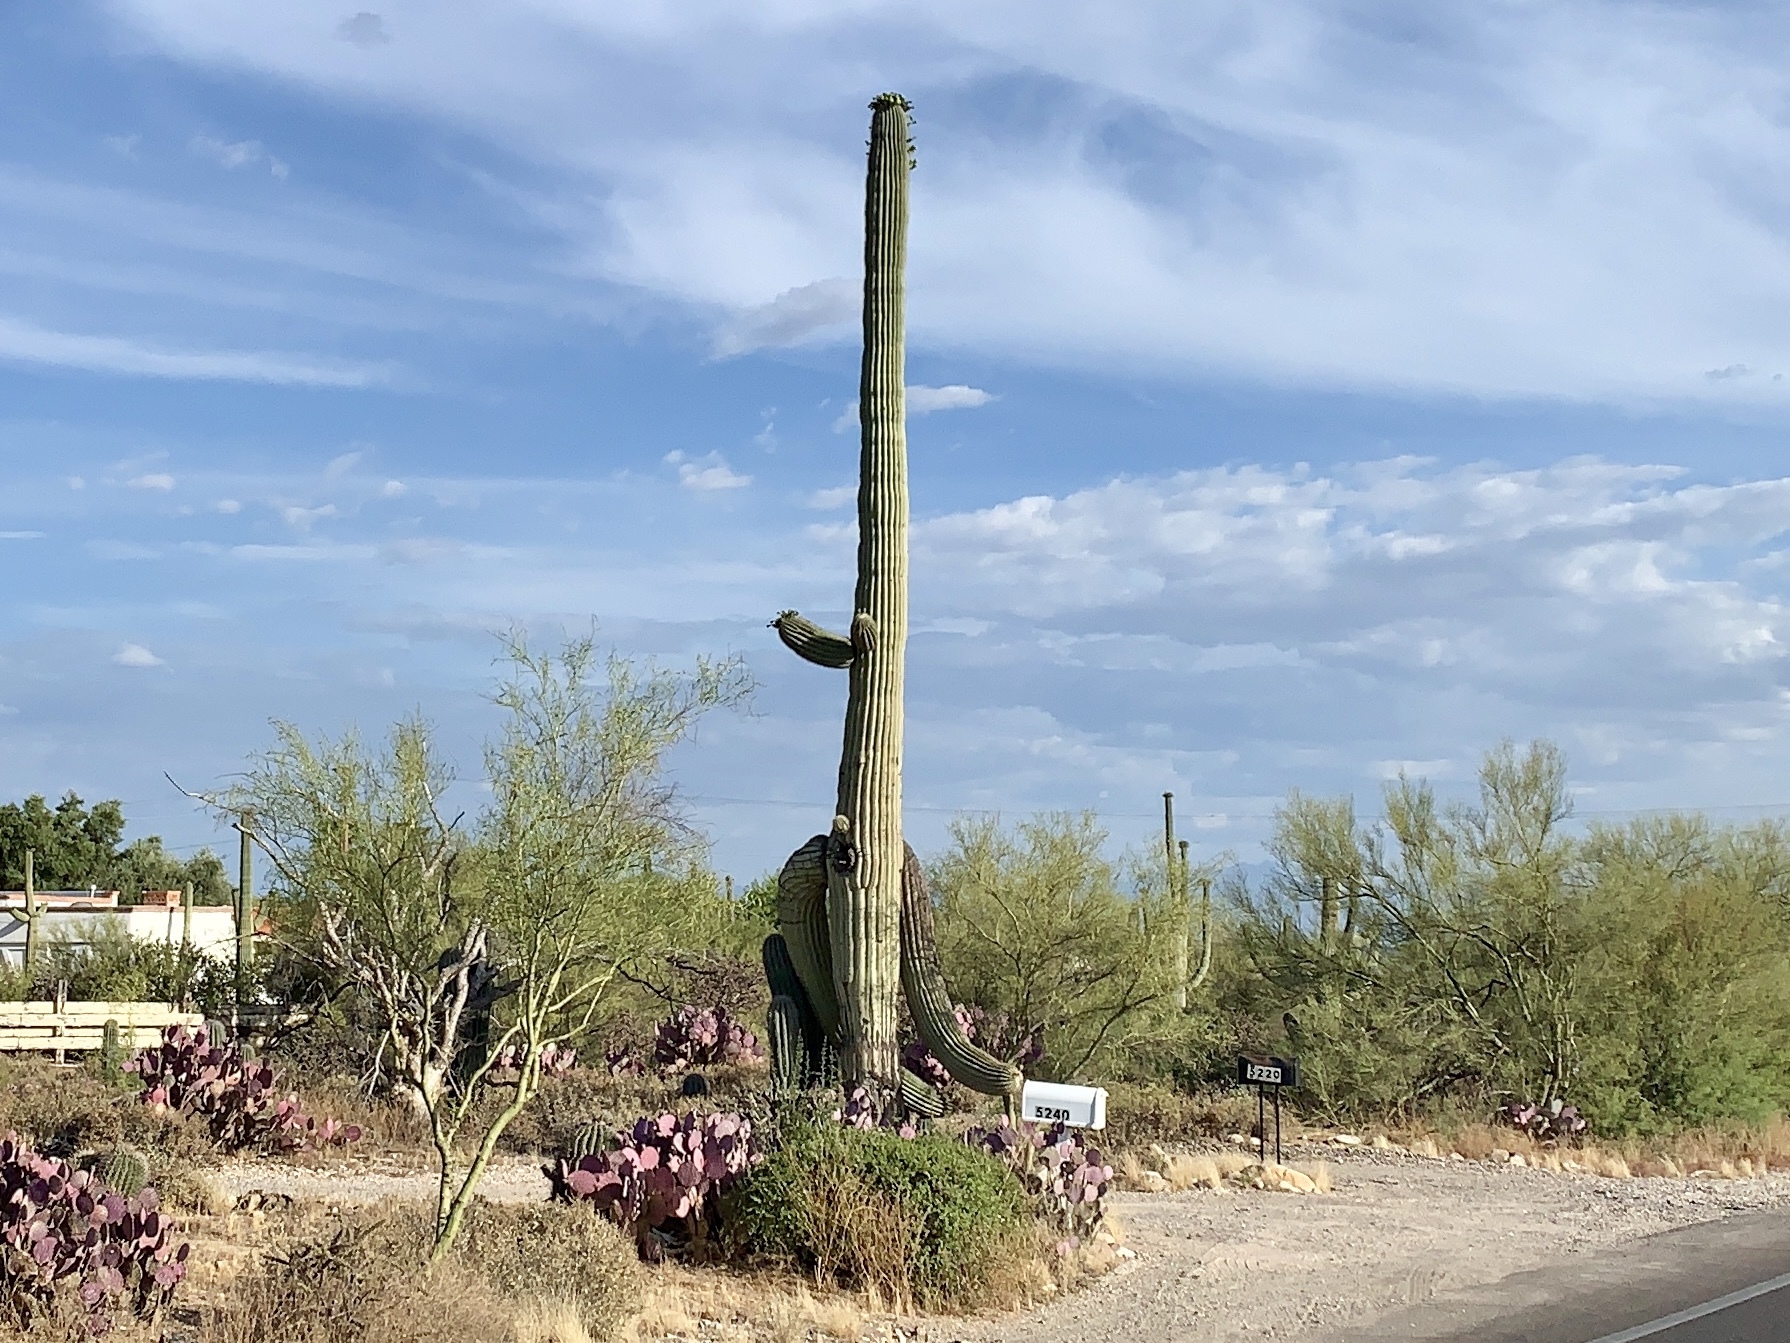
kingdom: Plantae
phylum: Tracheophyta
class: Magnoliopsida
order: Caryophyllales
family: Cactaceae
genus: Carnegiea
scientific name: Carnegiea gigantea
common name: Saguaro
